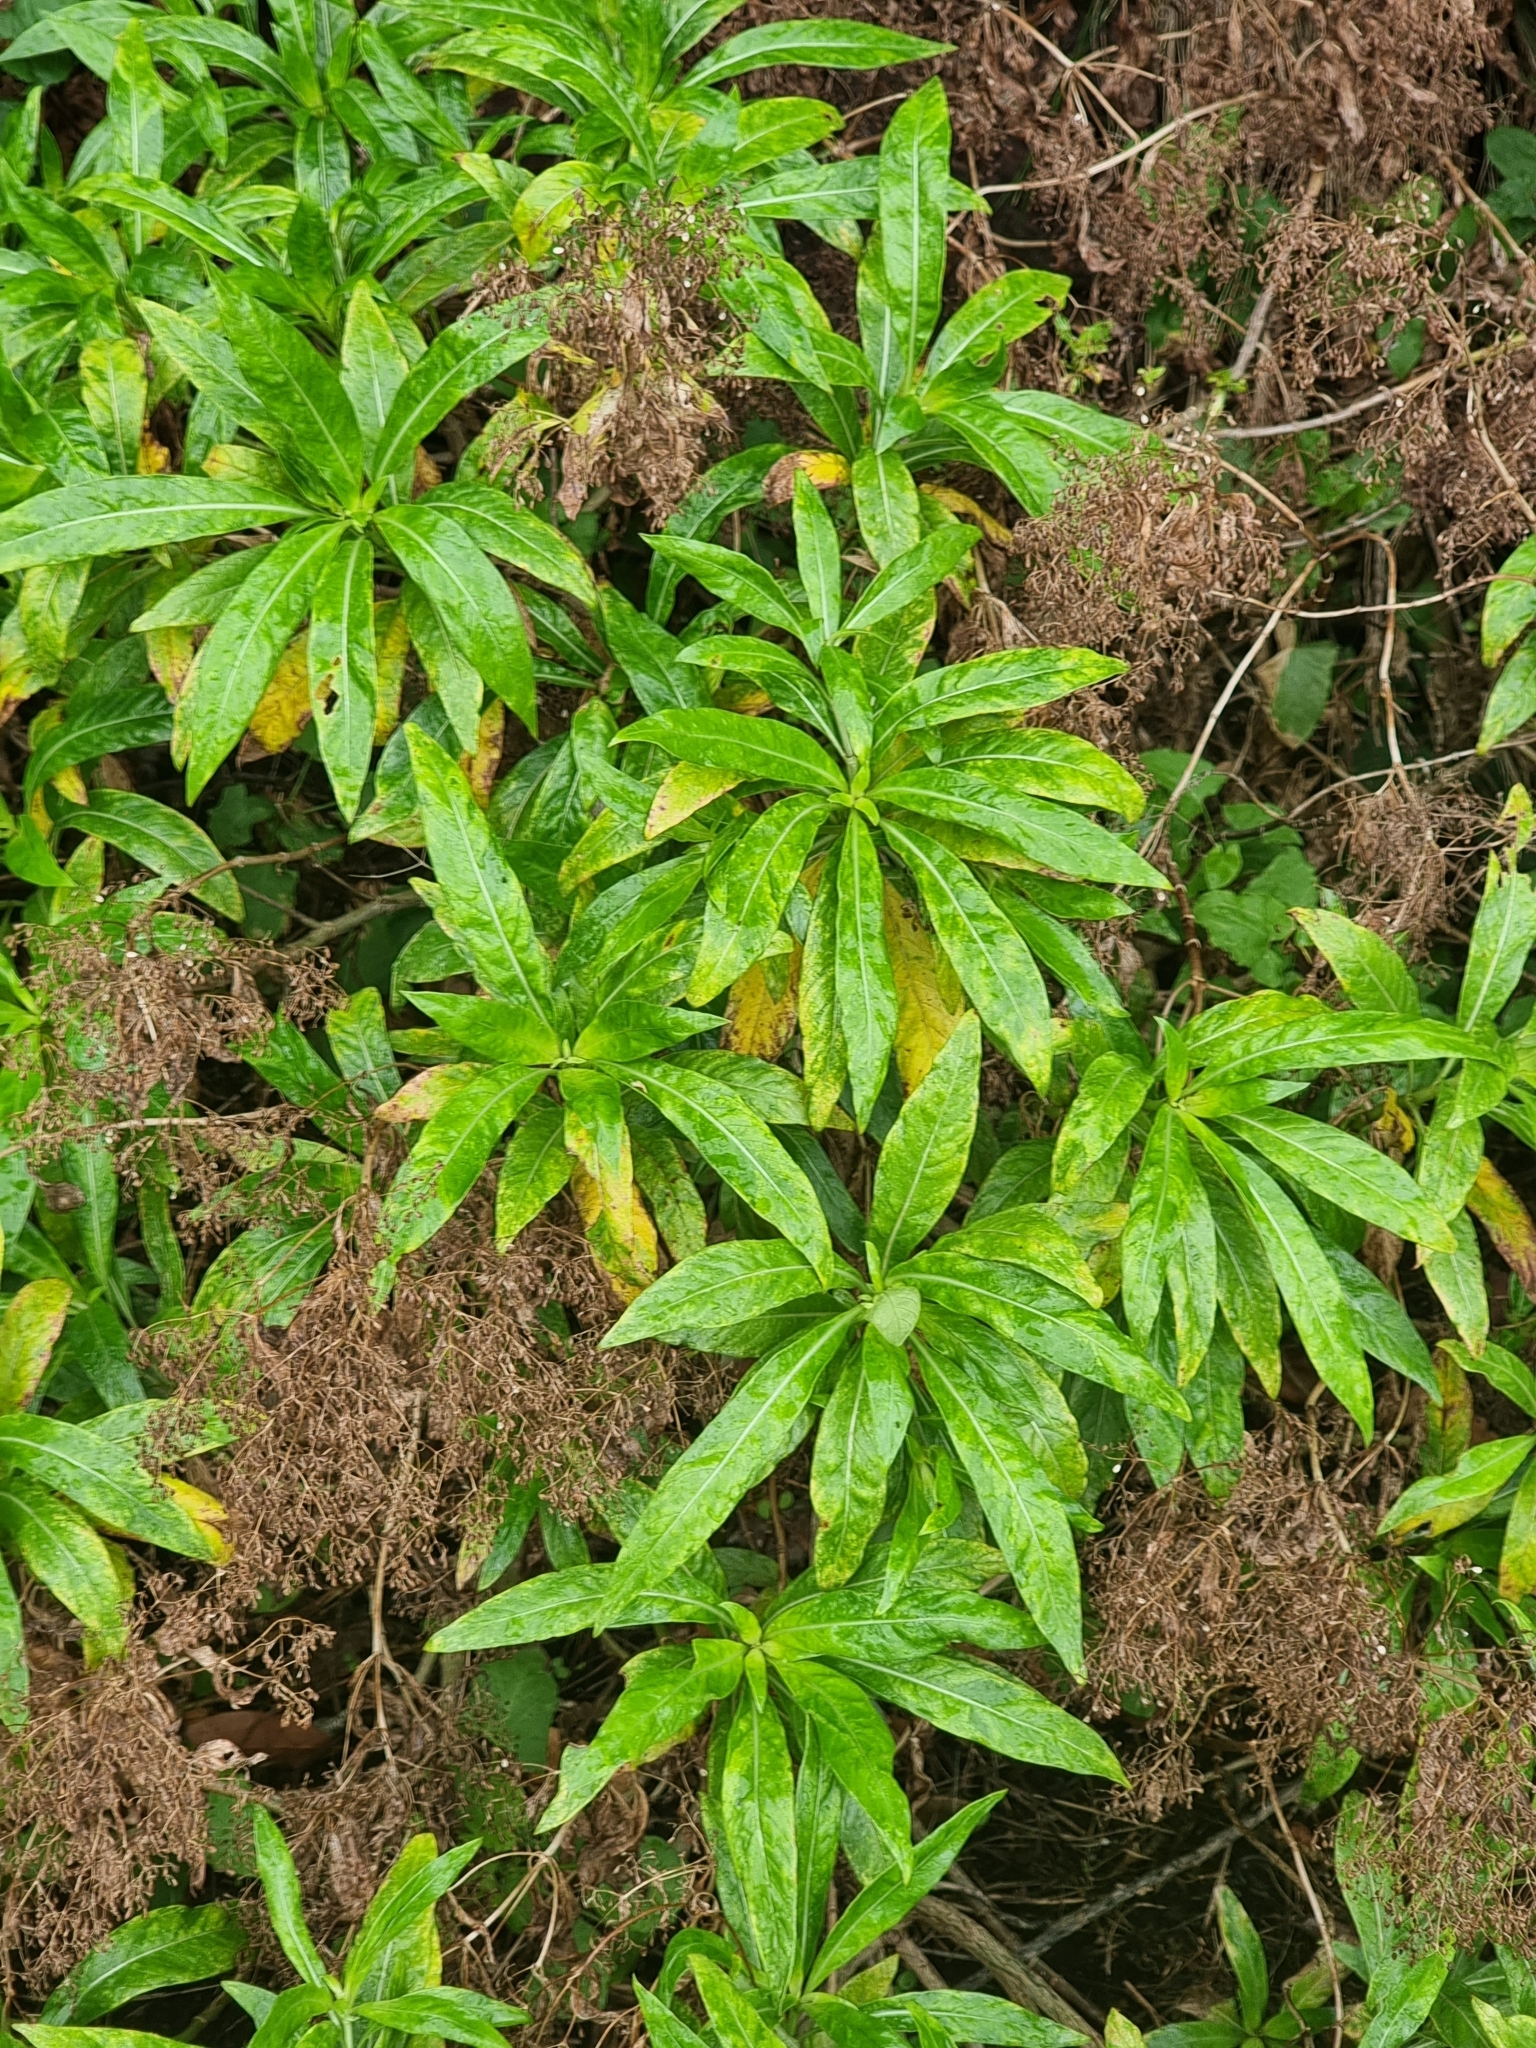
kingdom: Plantae
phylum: Tracheophyta
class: Magnoliopsida
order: Gentianales
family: Rubiaceae
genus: Phyllis
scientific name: Phyllis nobla
